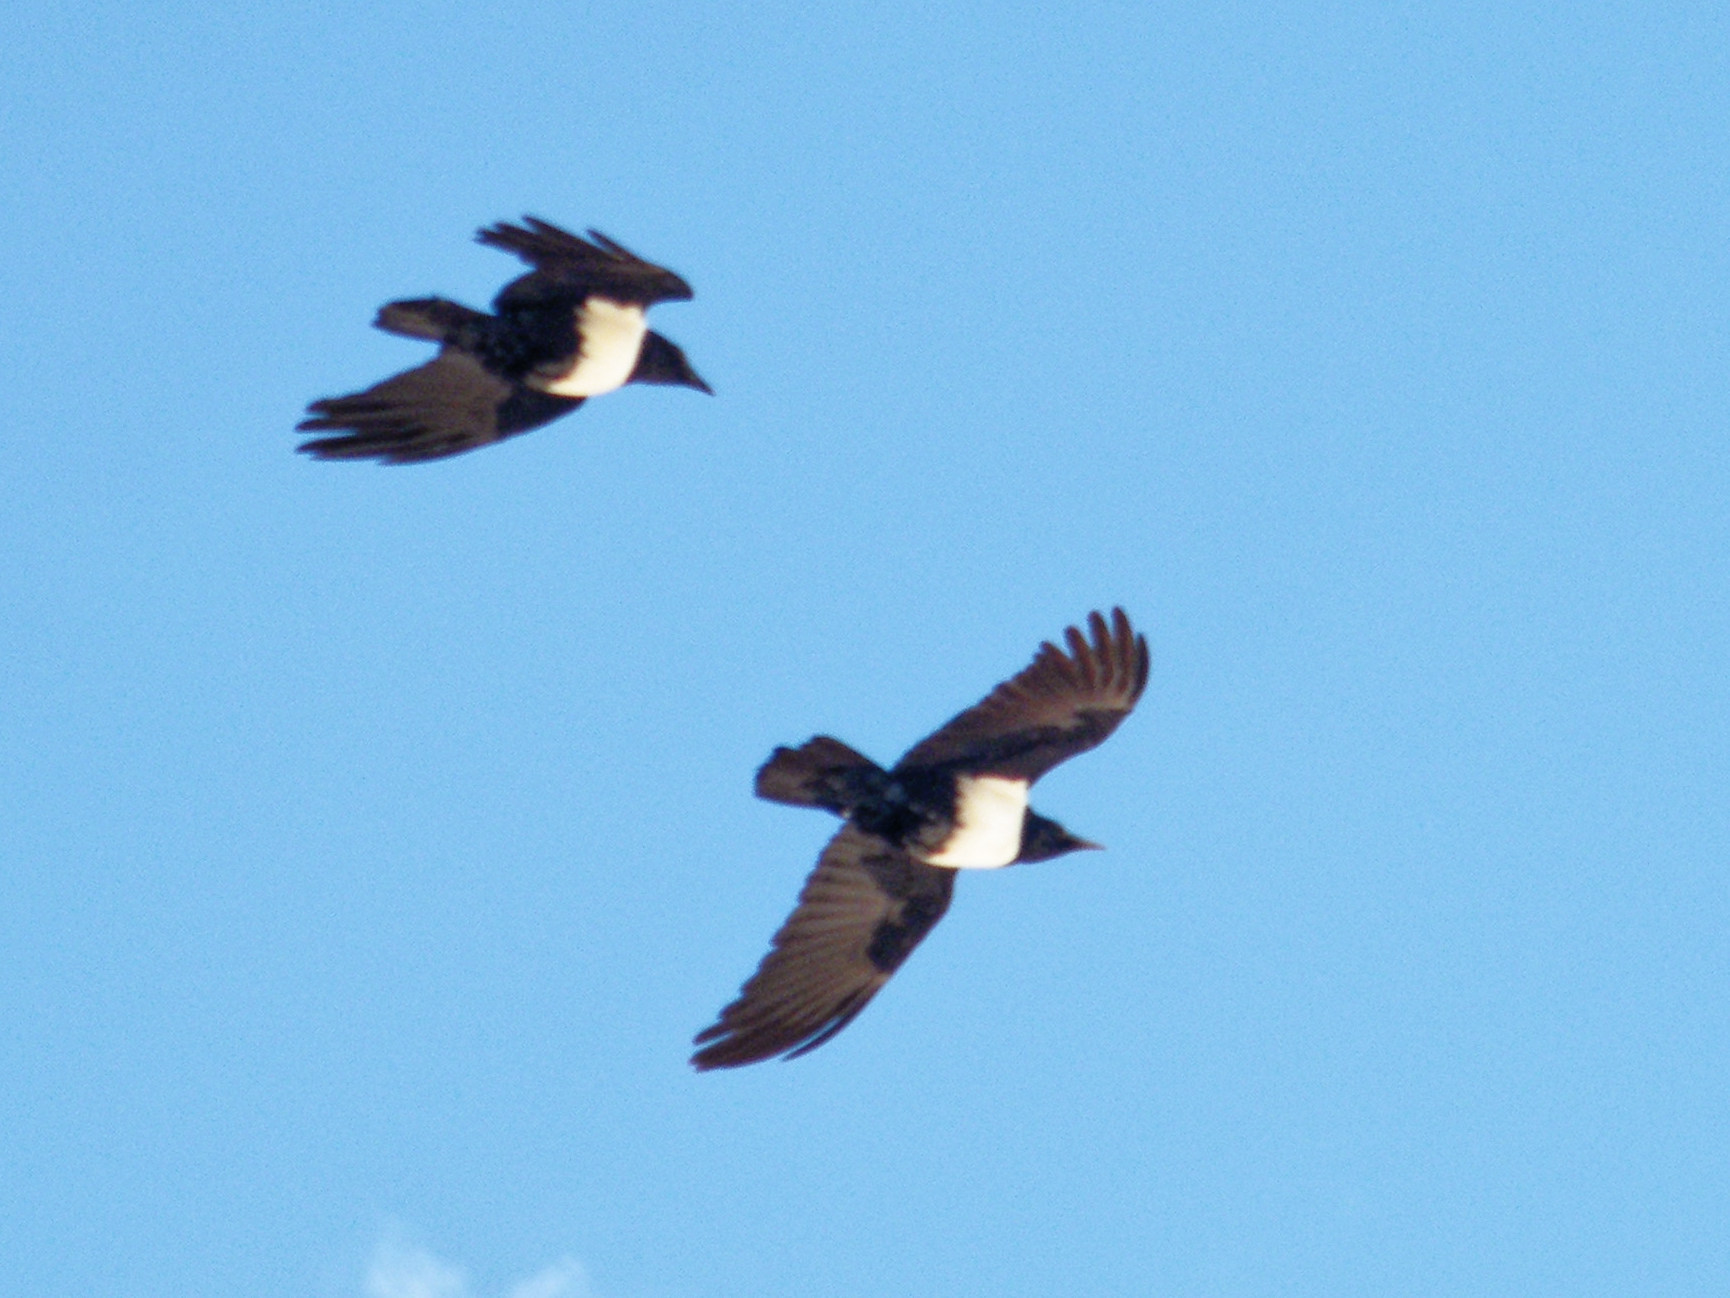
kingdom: Animalia
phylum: Chordata
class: Aves
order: Passeriformes
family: Corvidae
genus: Corvus
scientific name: Corvus albus
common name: Pied crow
